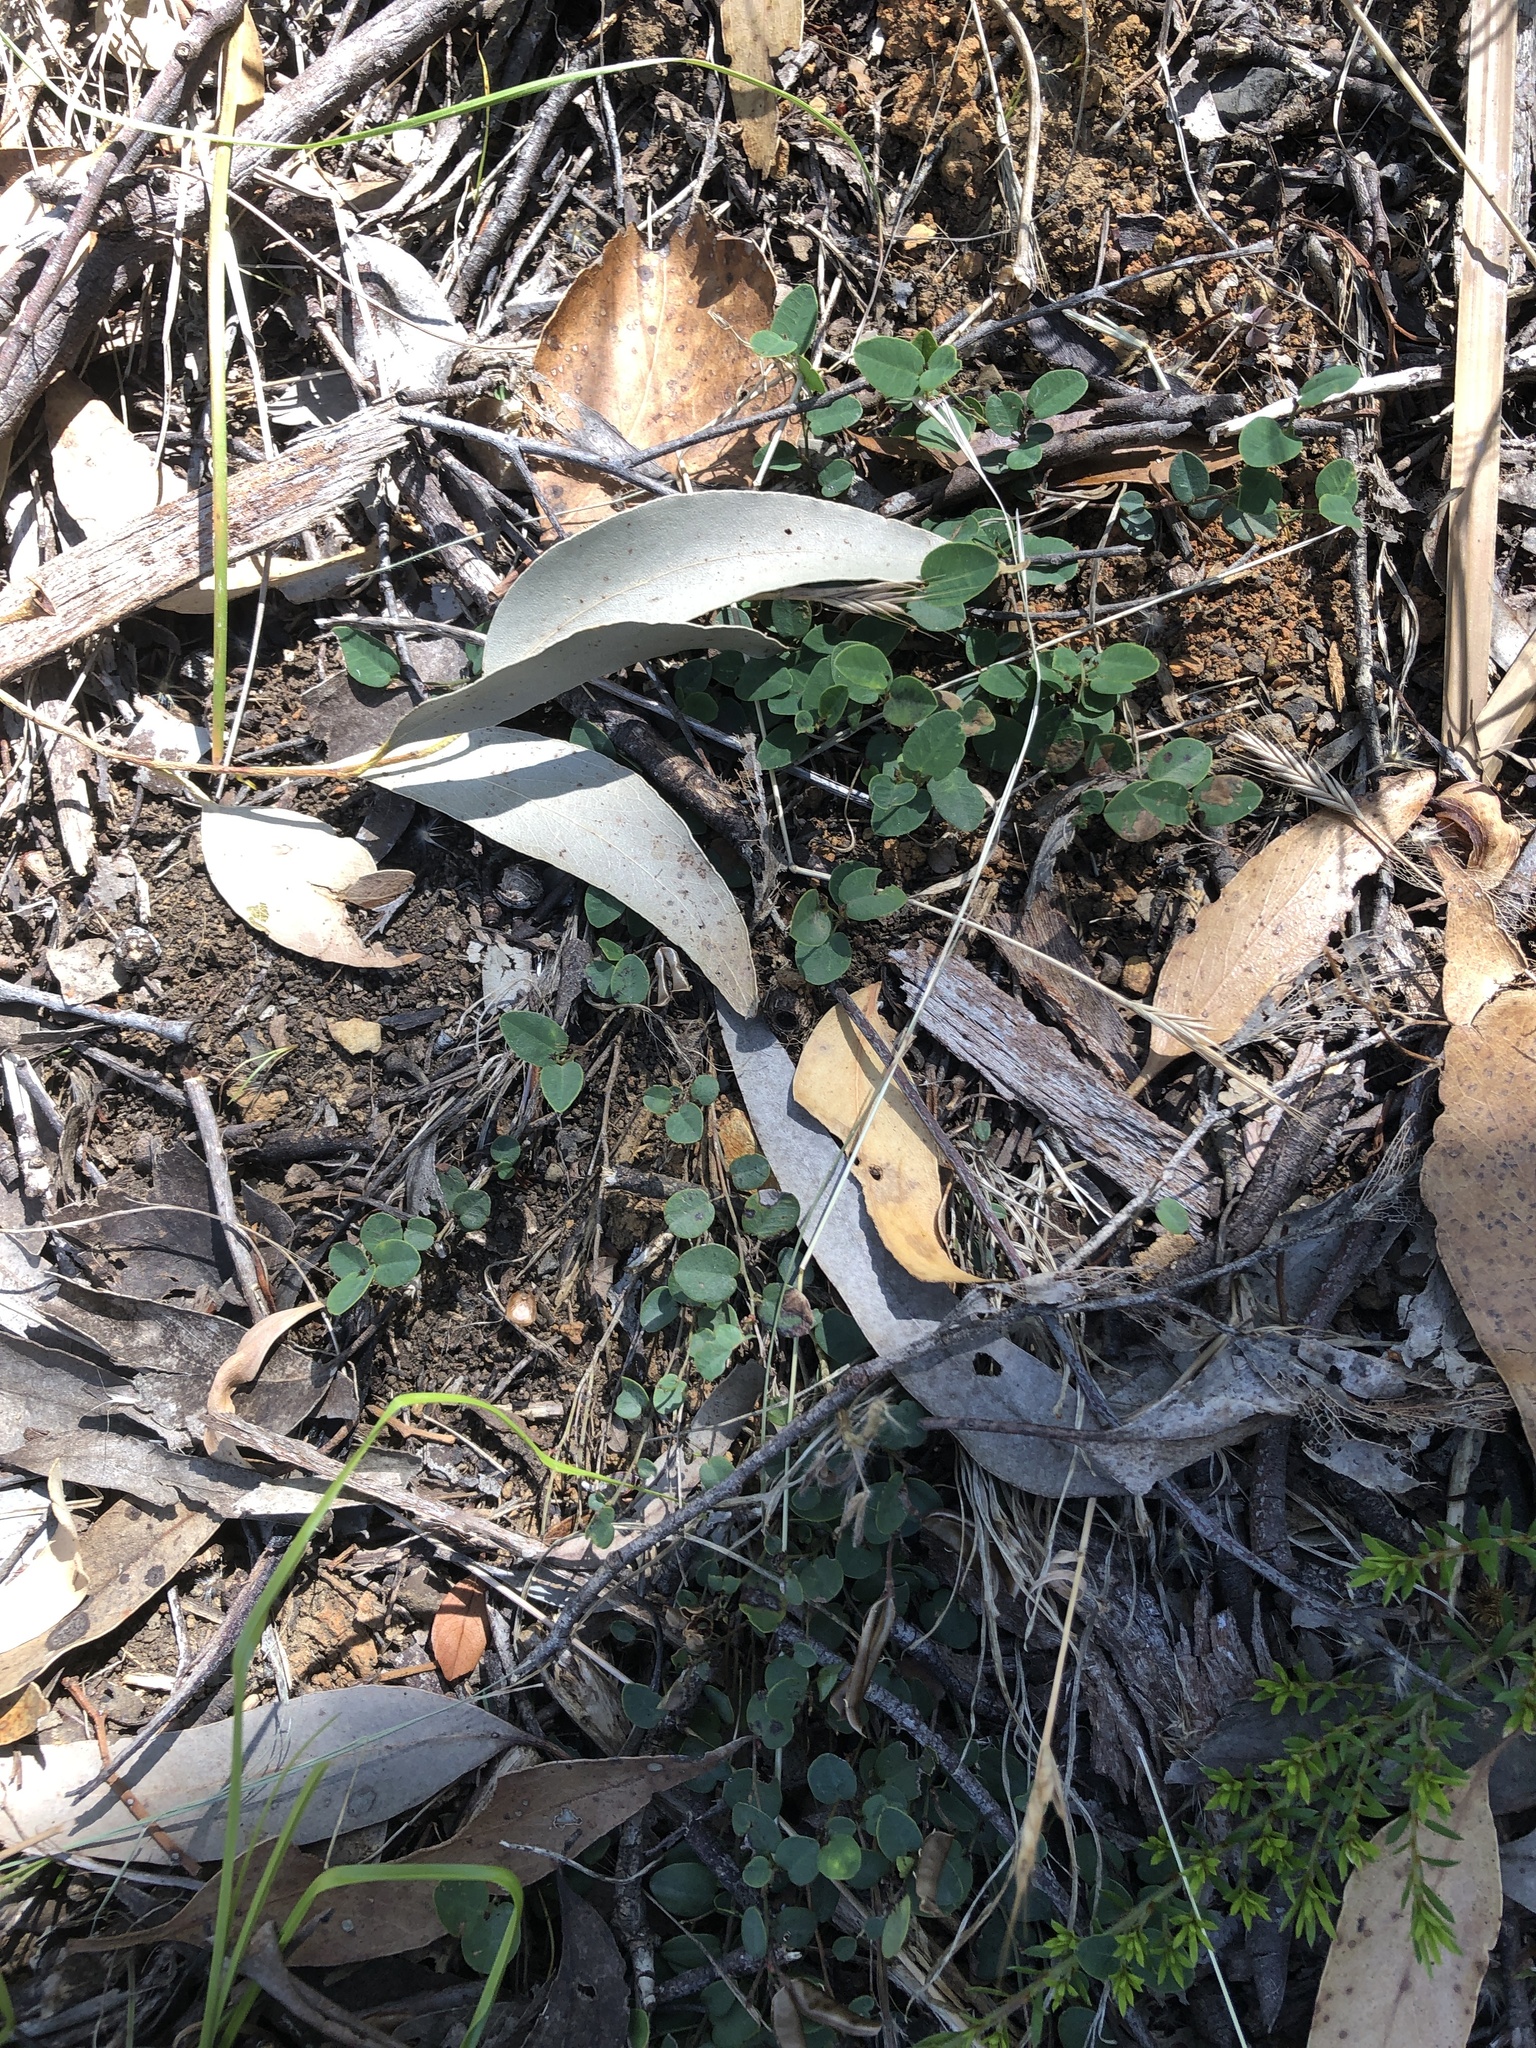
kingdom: Plantae
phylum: Tracheophyta
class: Magnoliopsida
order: Fabales
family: Fabaceae
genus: Bossiaea
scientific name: Bossiaea prostrata
